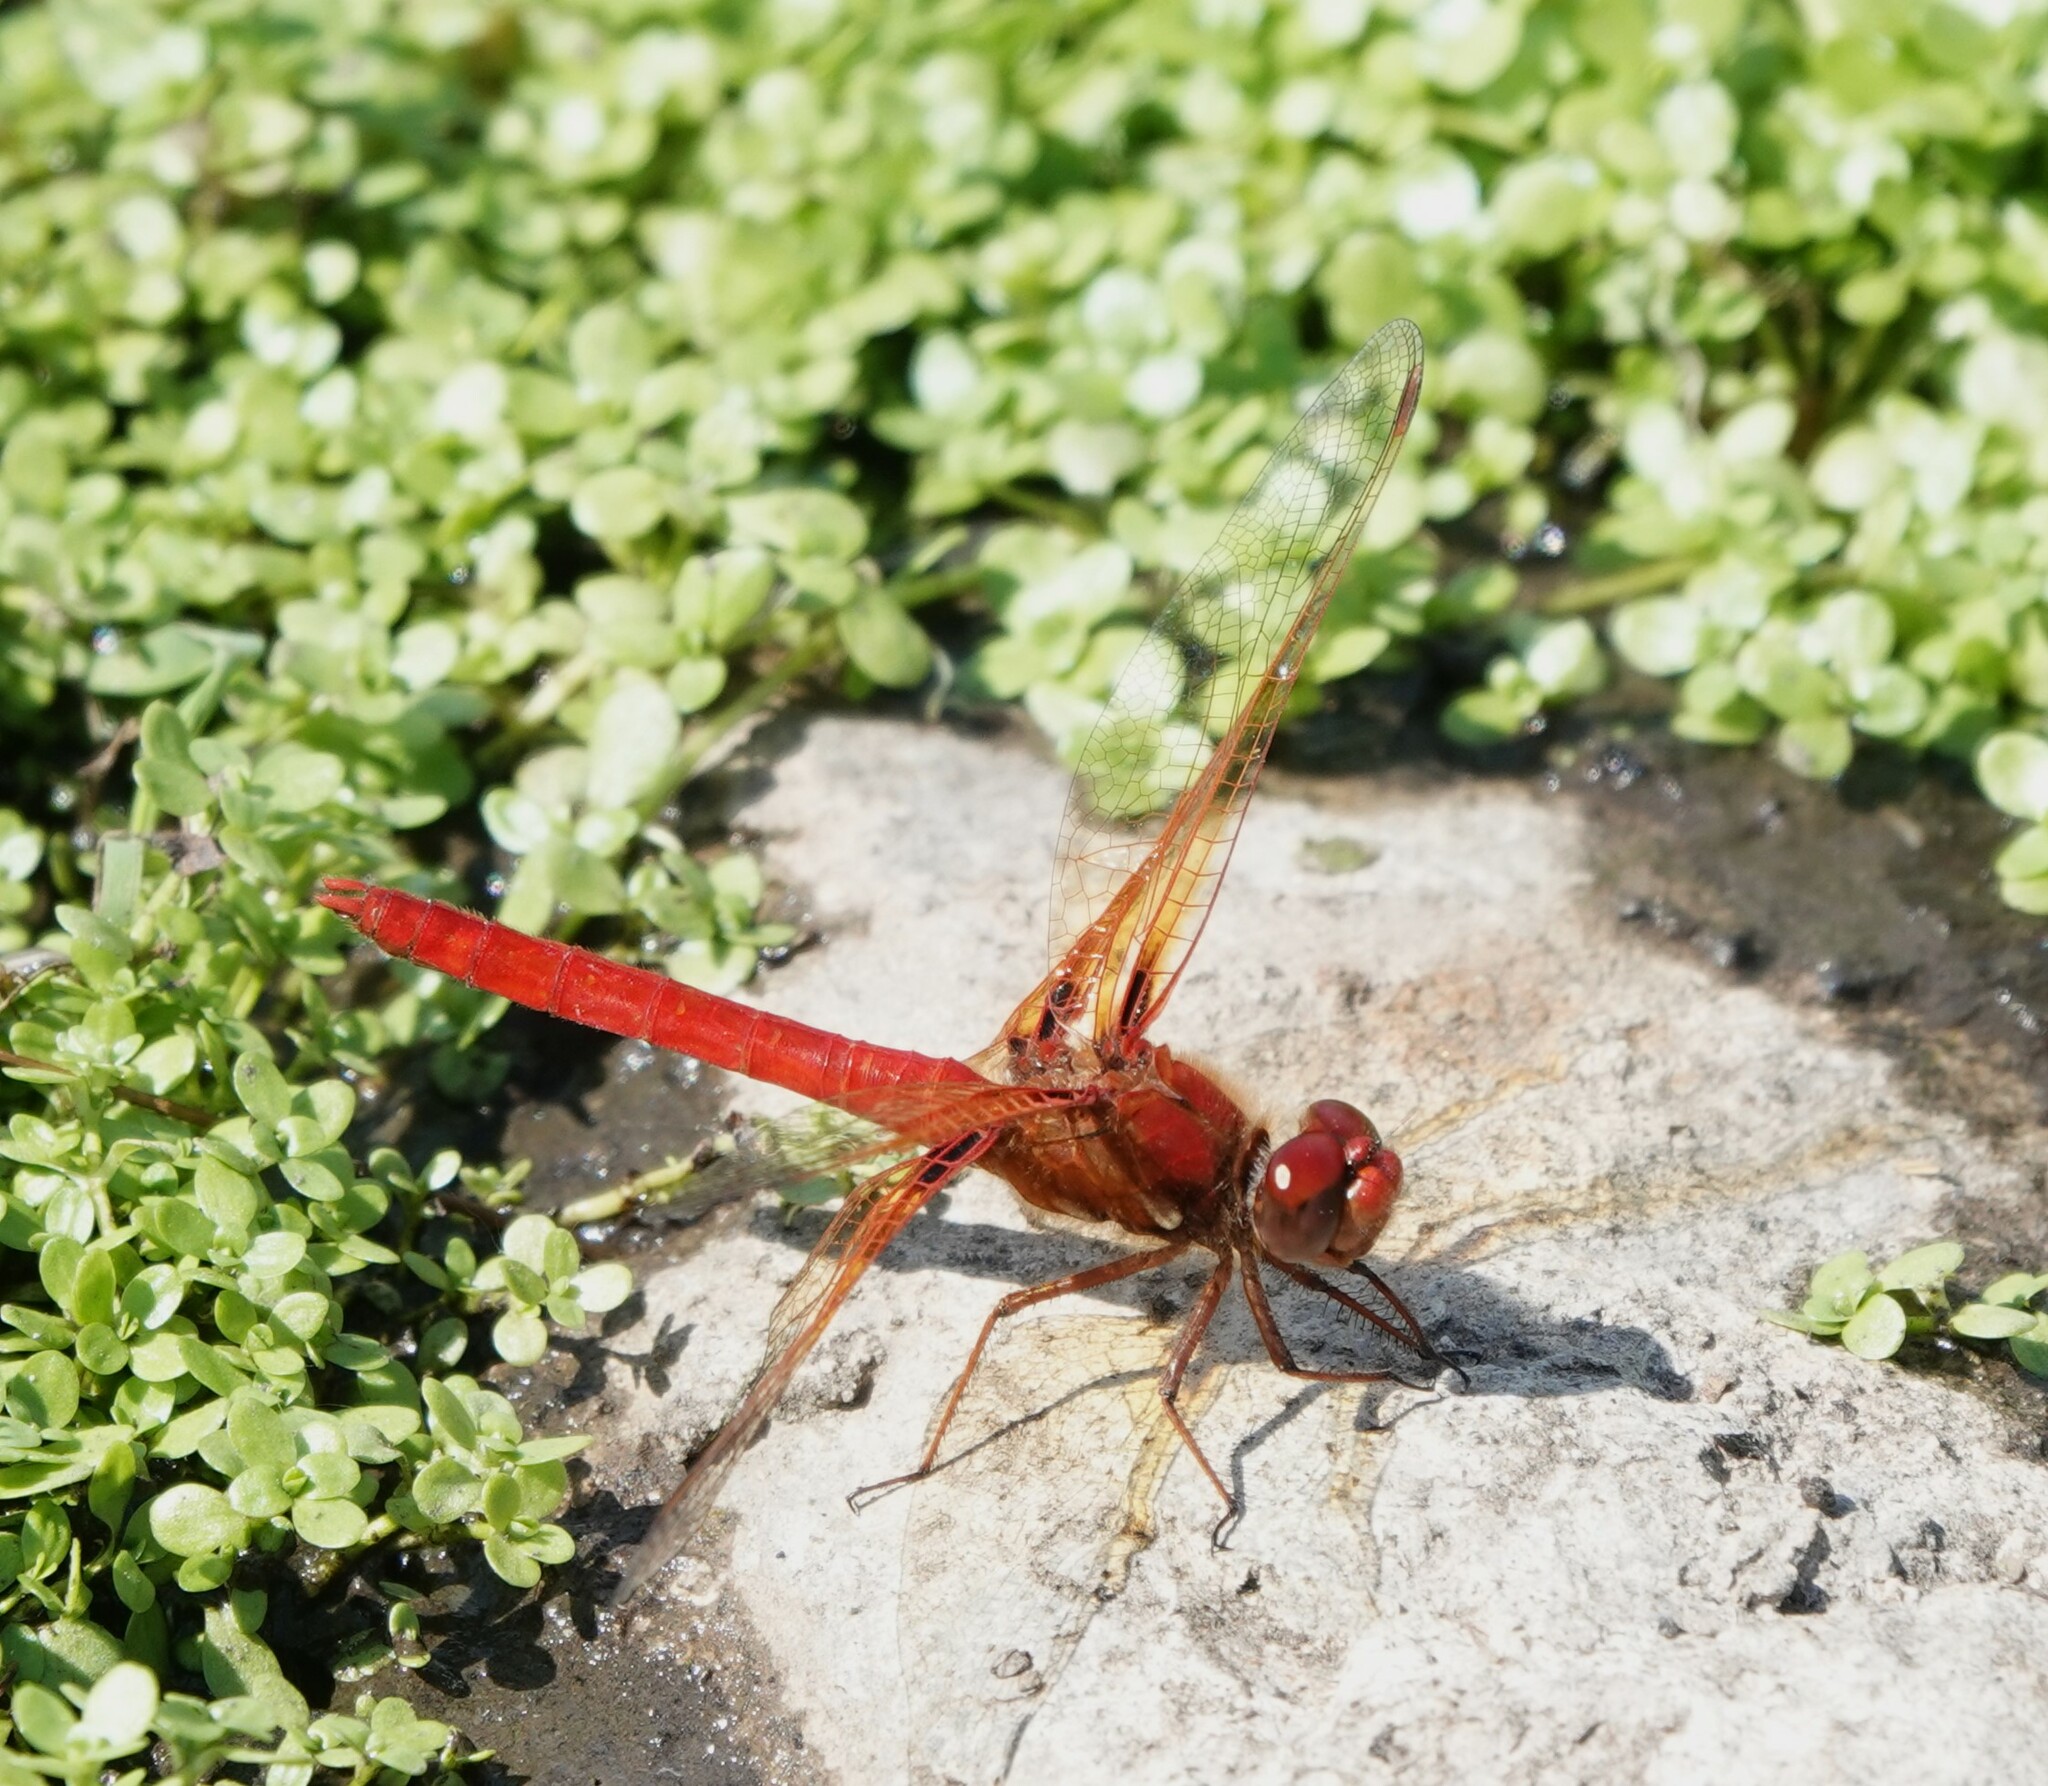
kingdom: Animalia
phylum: Arthropoda
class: Insecta
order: Odonata
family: Libellulidae
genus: Sympetrum
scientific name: Sympetrum illotum
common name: Cardinal meadowhawk
